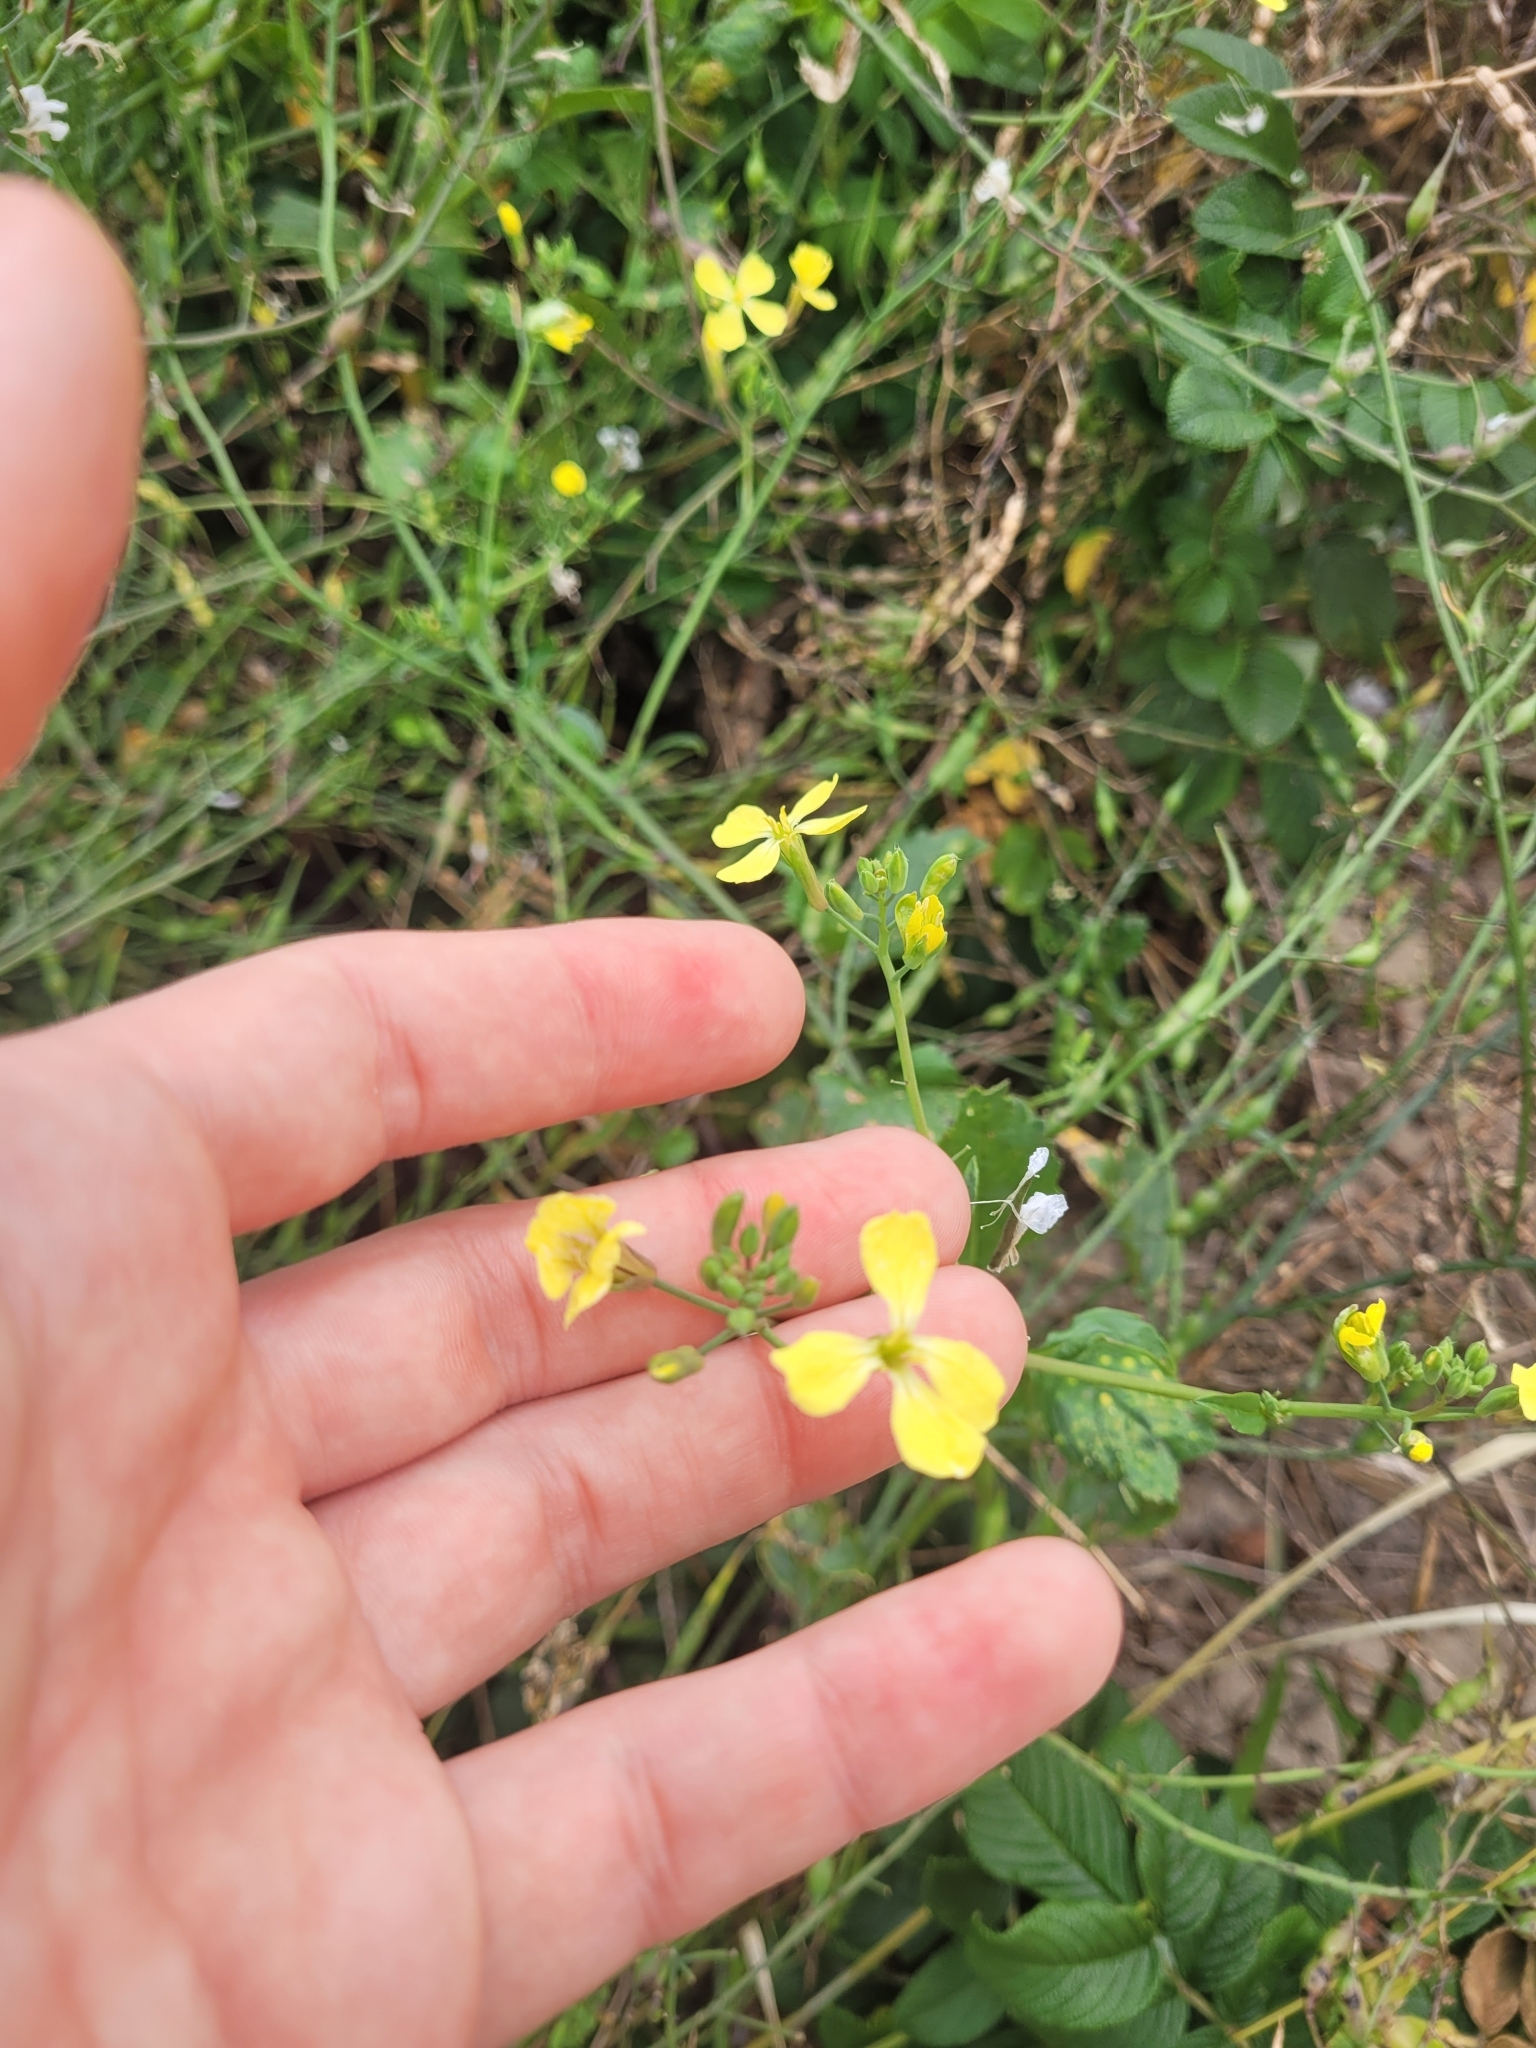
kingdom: Plantae
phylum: Tracheophyta
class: Magnoliopsida
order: Brassicales
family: Brassicaceae
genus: Raphanus
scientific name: Raphanus raphanistrum
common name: Wild radish
